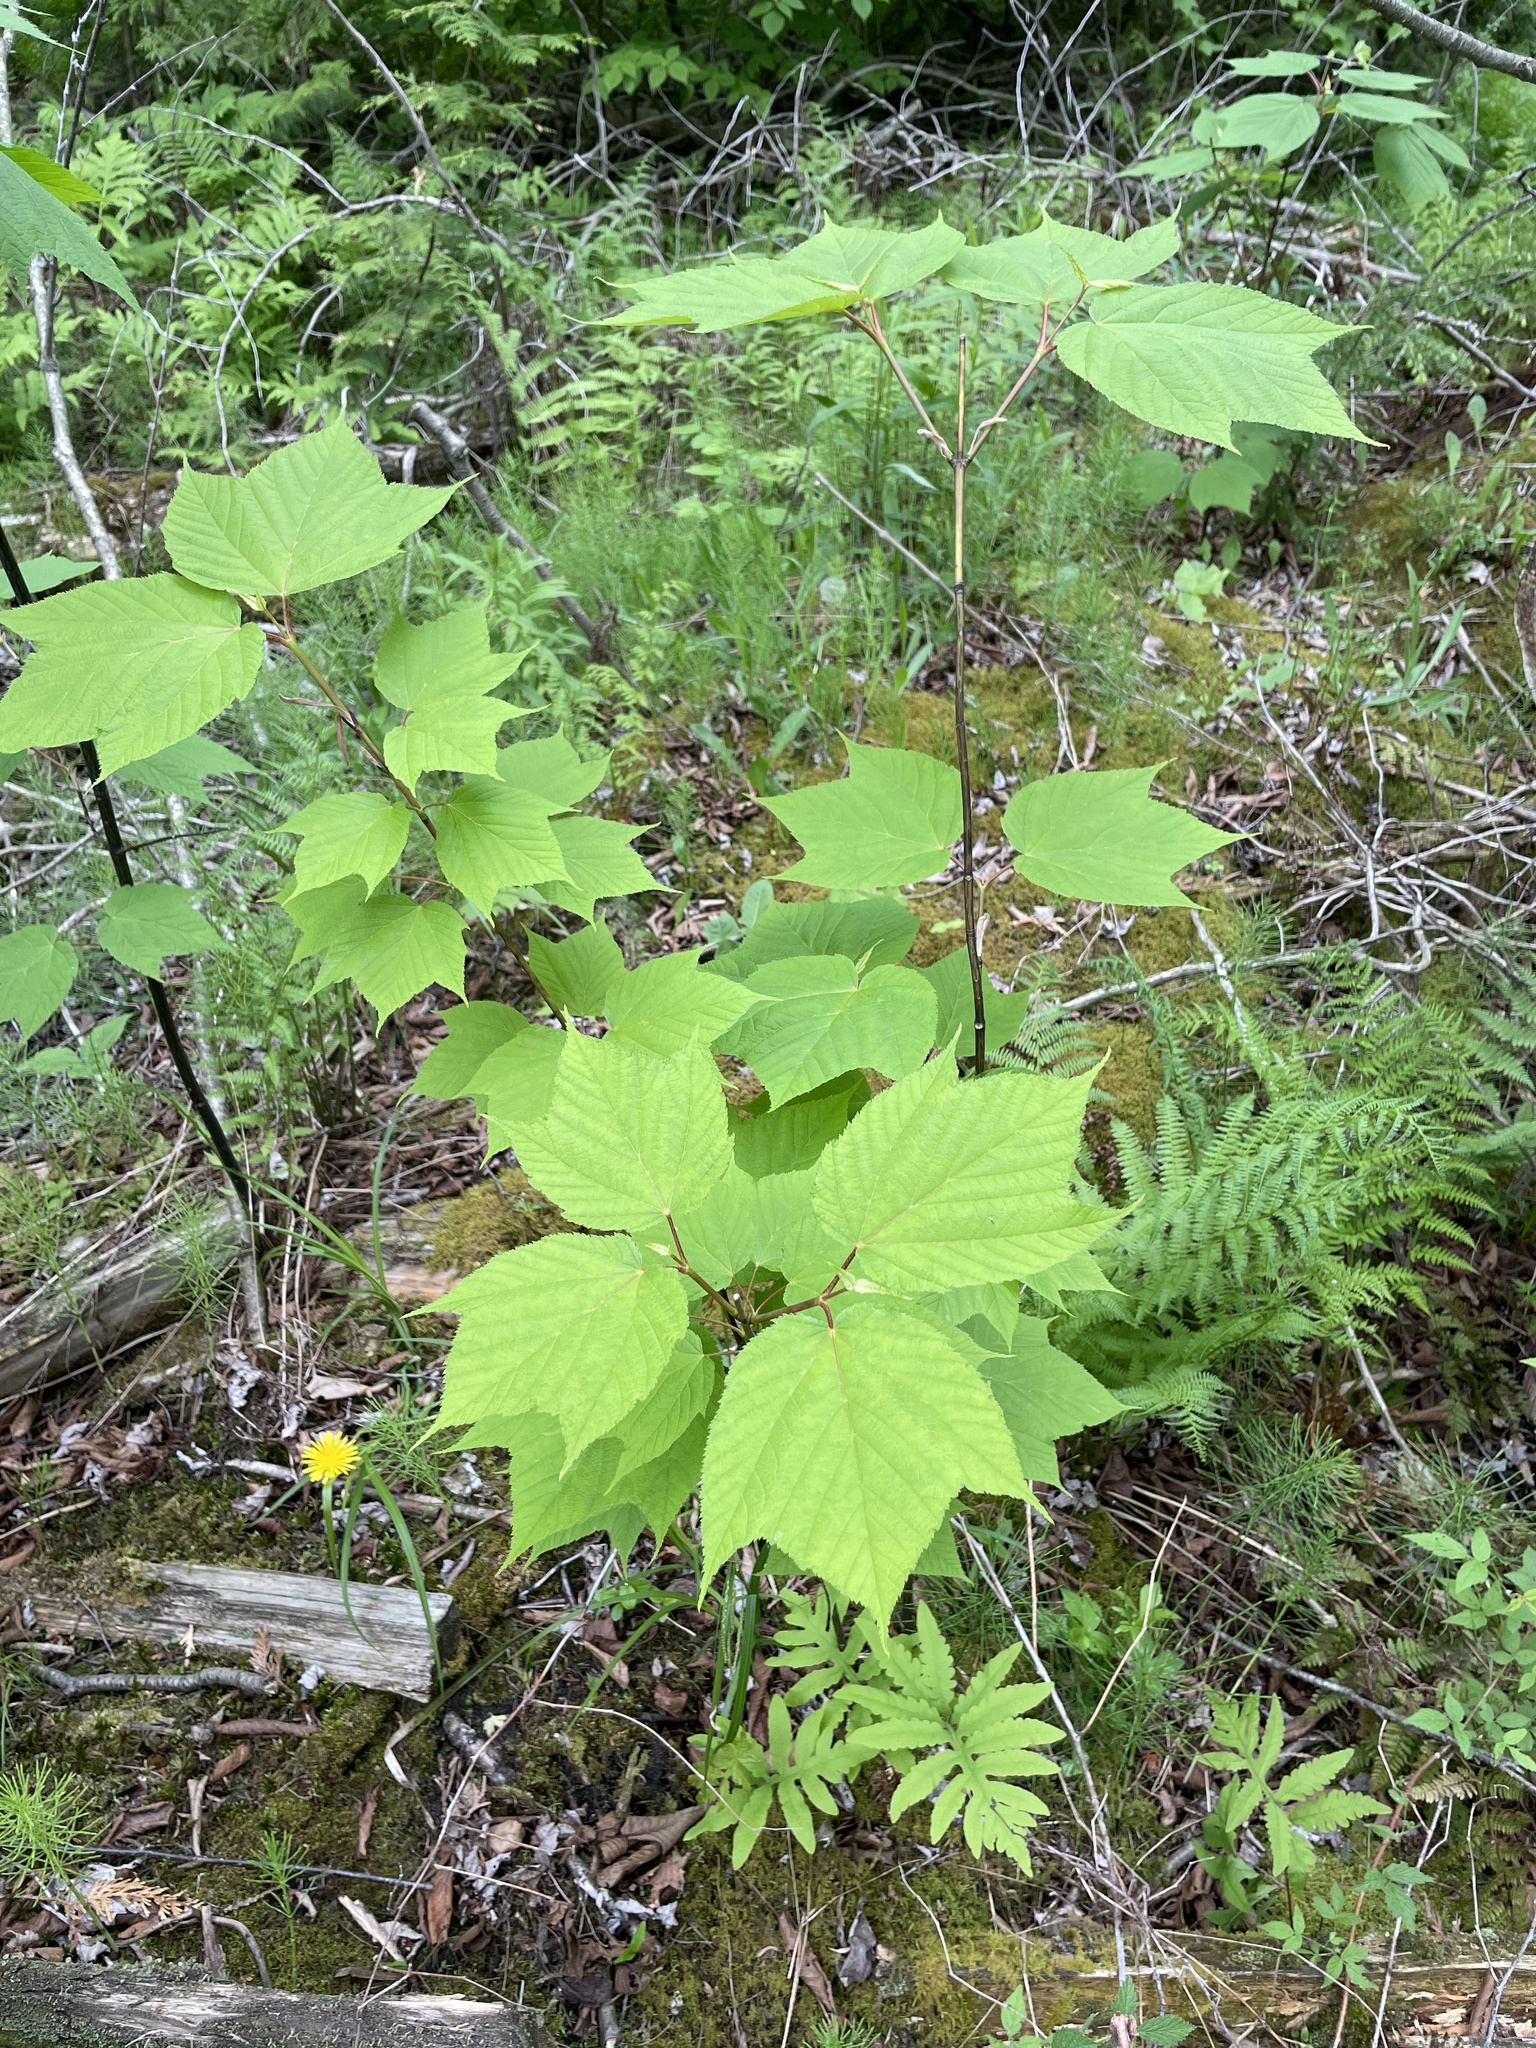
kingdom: Plantae
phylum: Tracheophyta
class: Magnoliopsida
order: Sapindales
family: Sapindaceae
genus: Acer
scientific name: Acer pensylvanicum
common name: Moosewood
